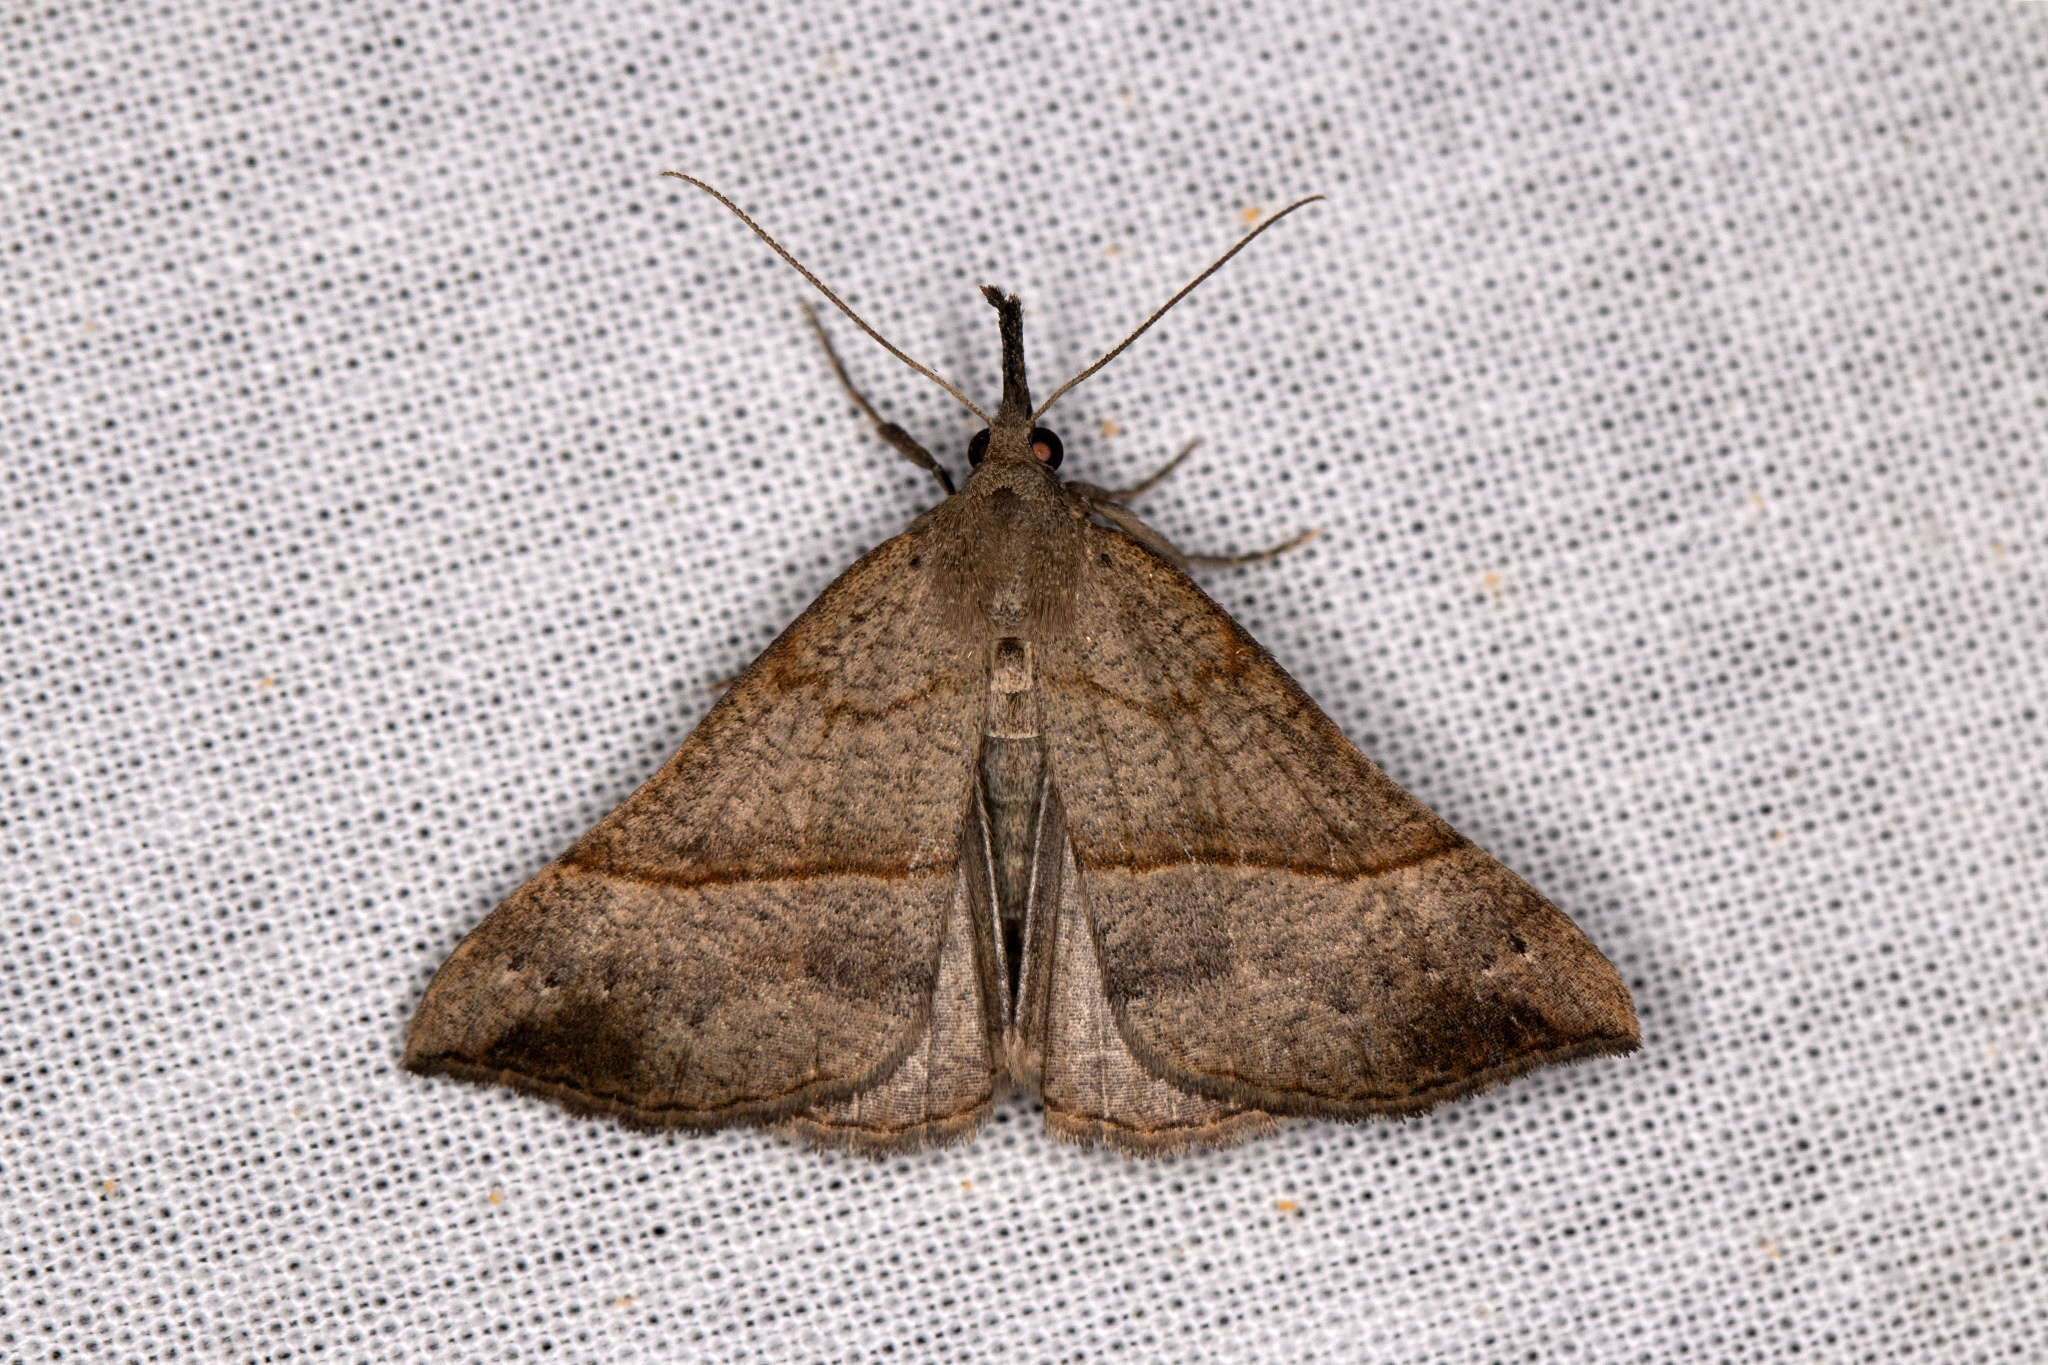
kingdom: Animalia
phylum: Arthropoda
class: Insecta
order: Lepidoptera
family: Erebidae
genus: Hypena
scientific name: Hypena proboscidalis
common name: Snout
